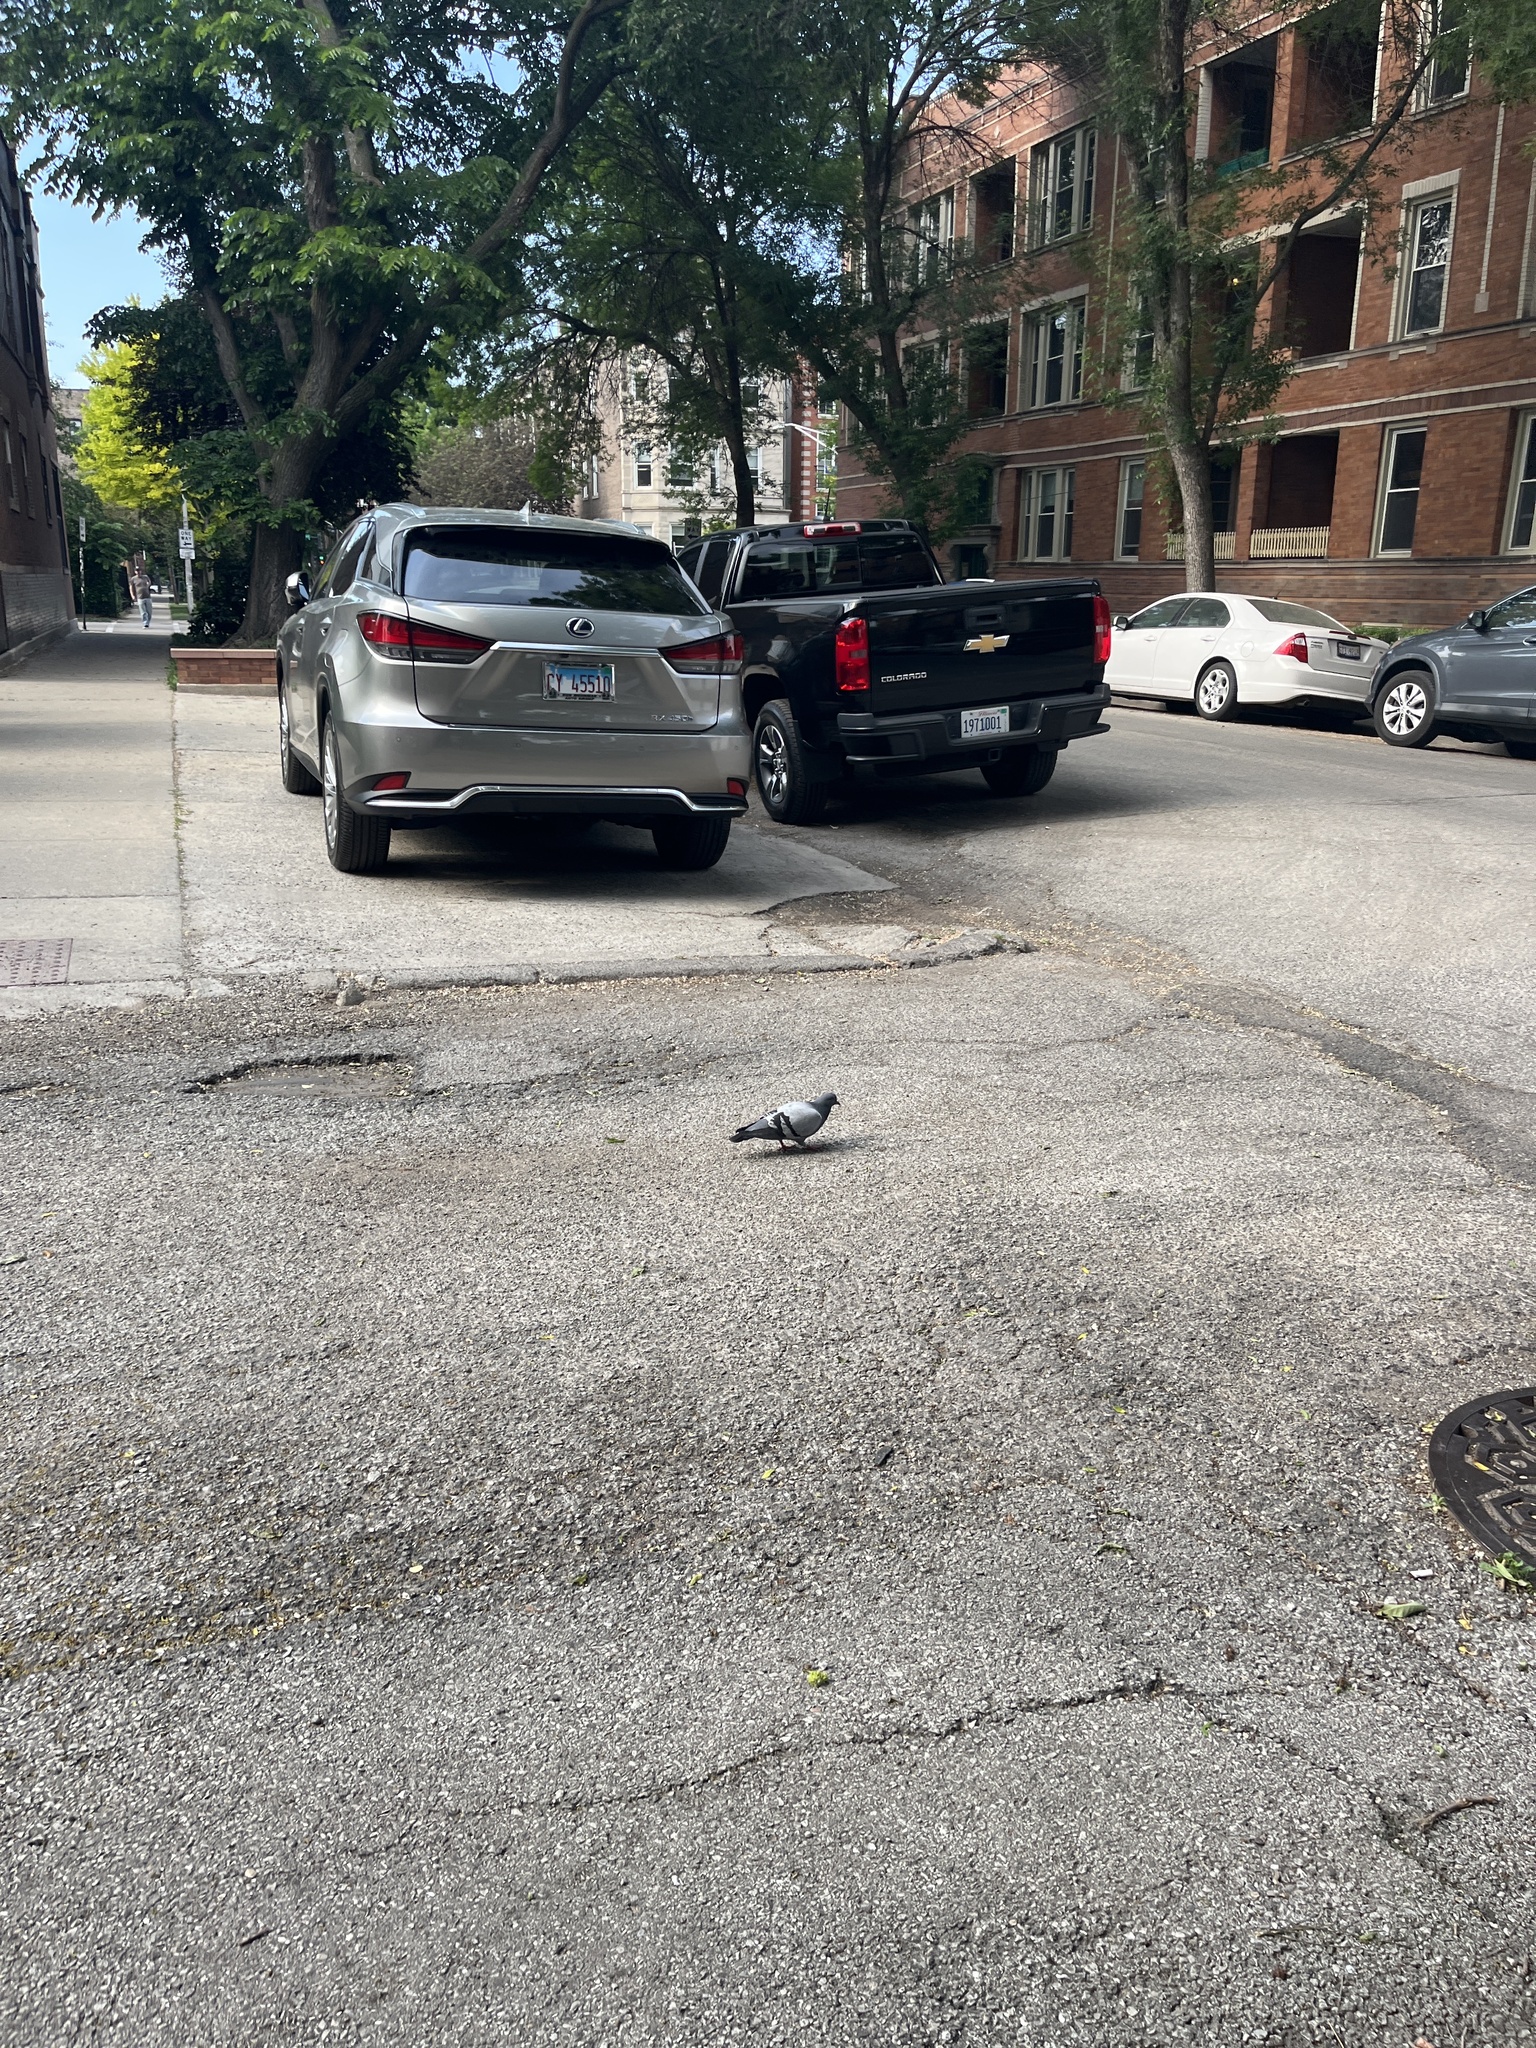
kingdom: Animalia
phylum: Chordata
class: Aves
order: Columbiformes
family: Columbidae
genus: Columba
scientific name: Columba livia
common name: Rock pigeon
